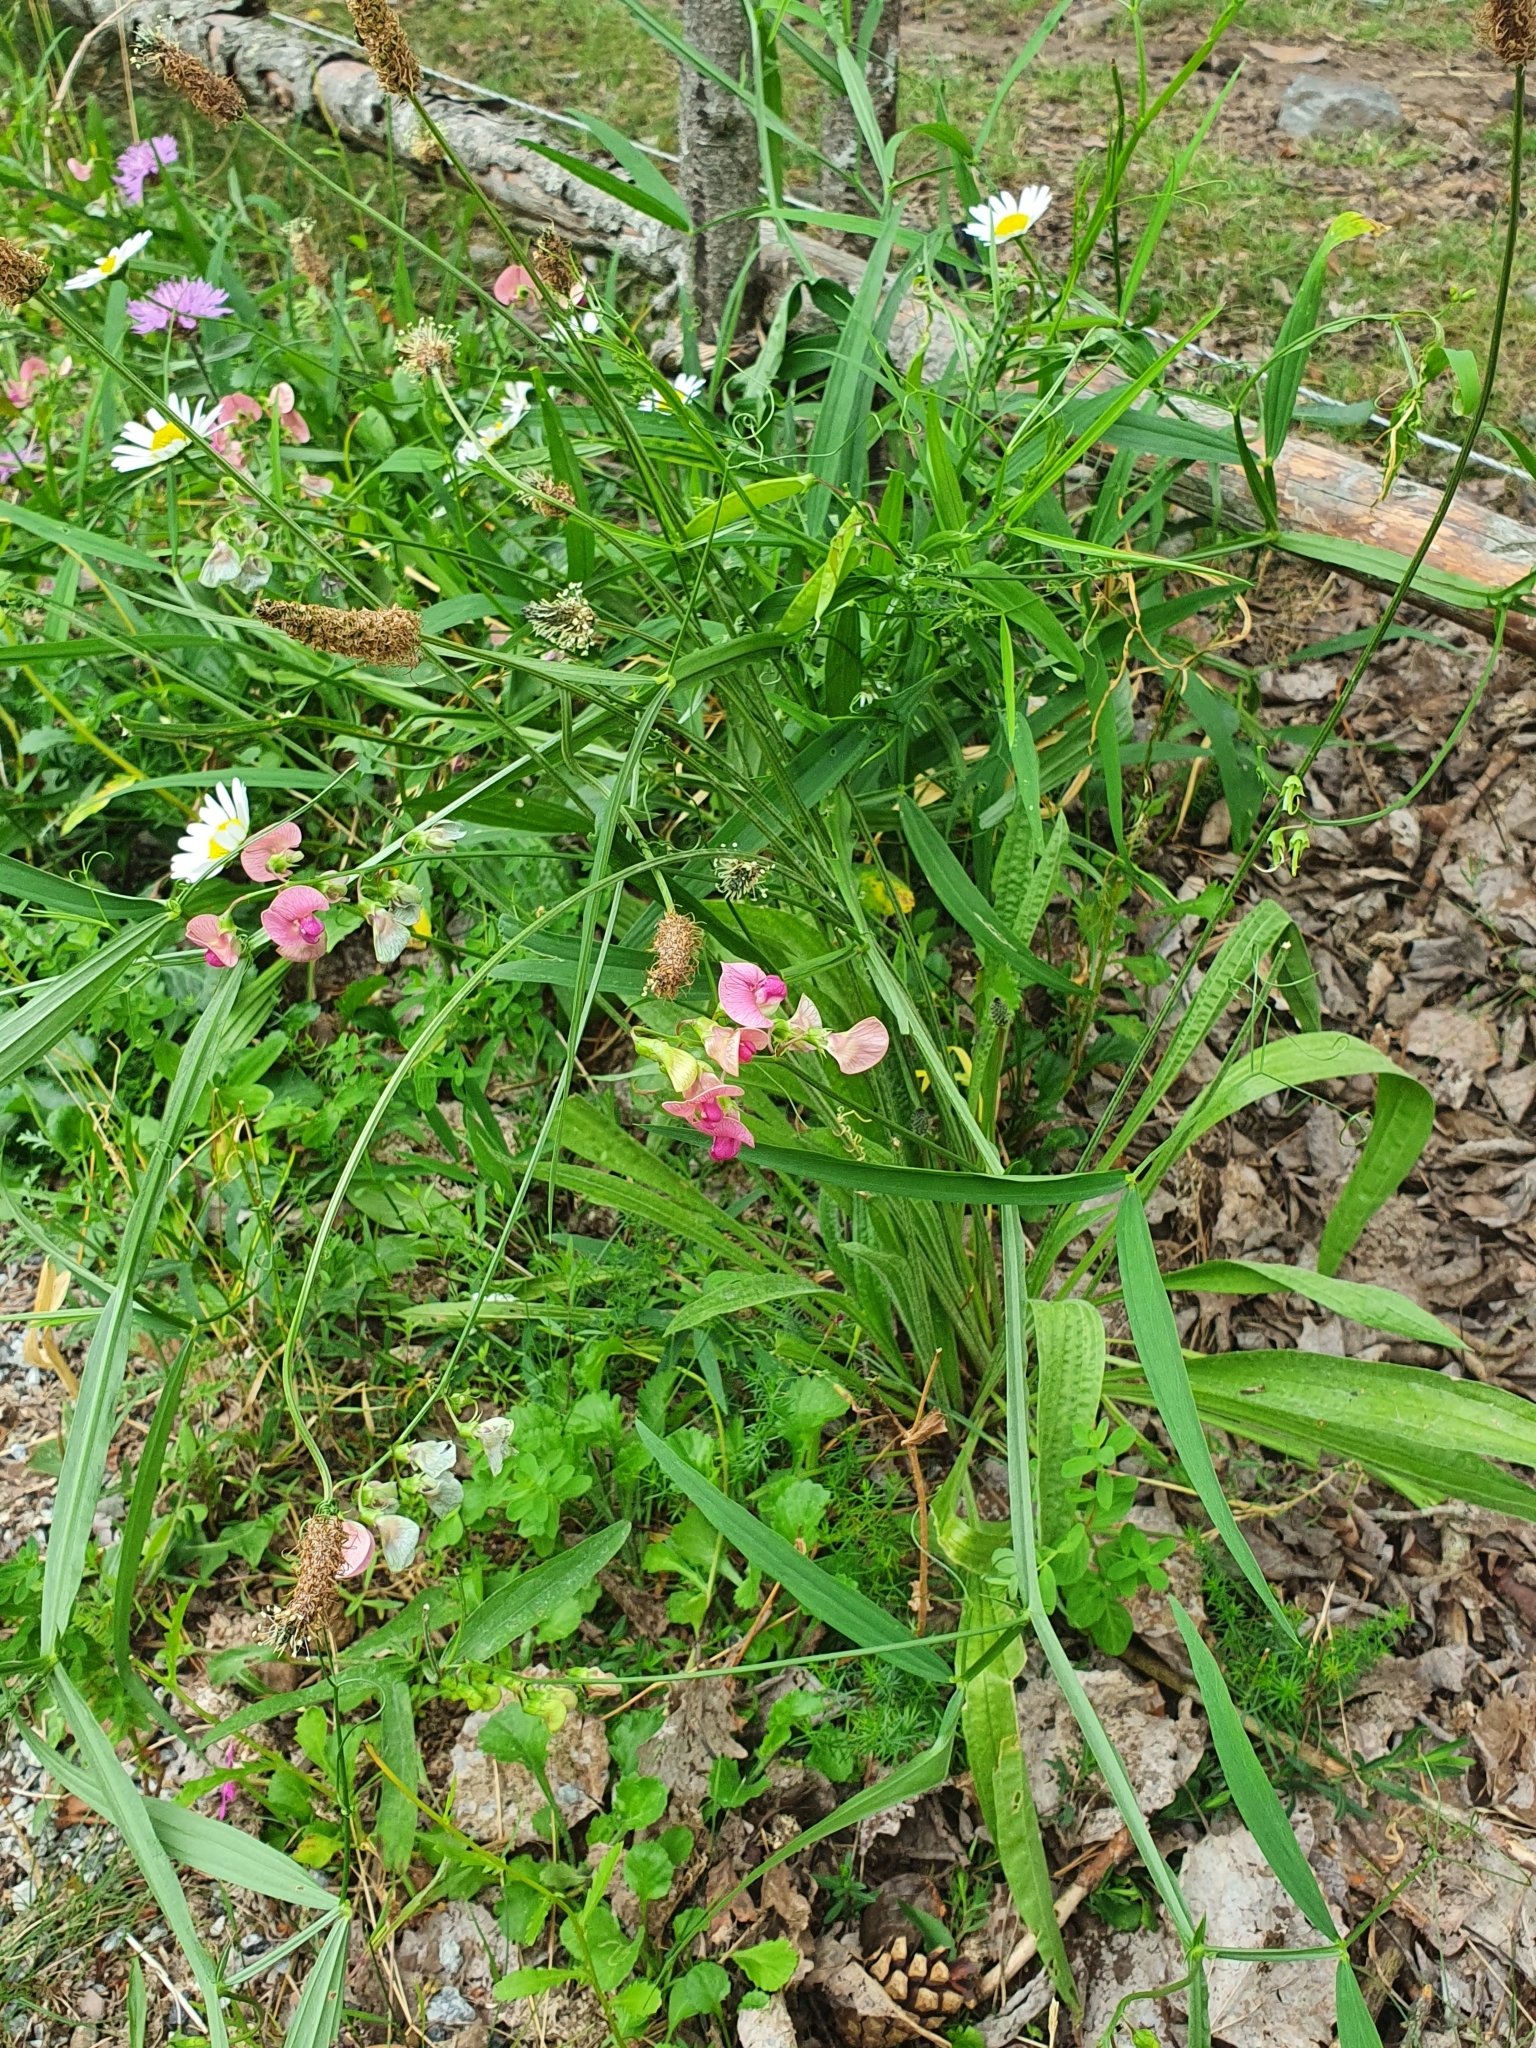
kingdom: Plantae
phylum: Tracheophyta
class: Magnoliopsida
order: Fabales
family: Fabaceae
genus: Lathyrus
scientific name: Lathyrus sylvestris
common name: Flat pea
